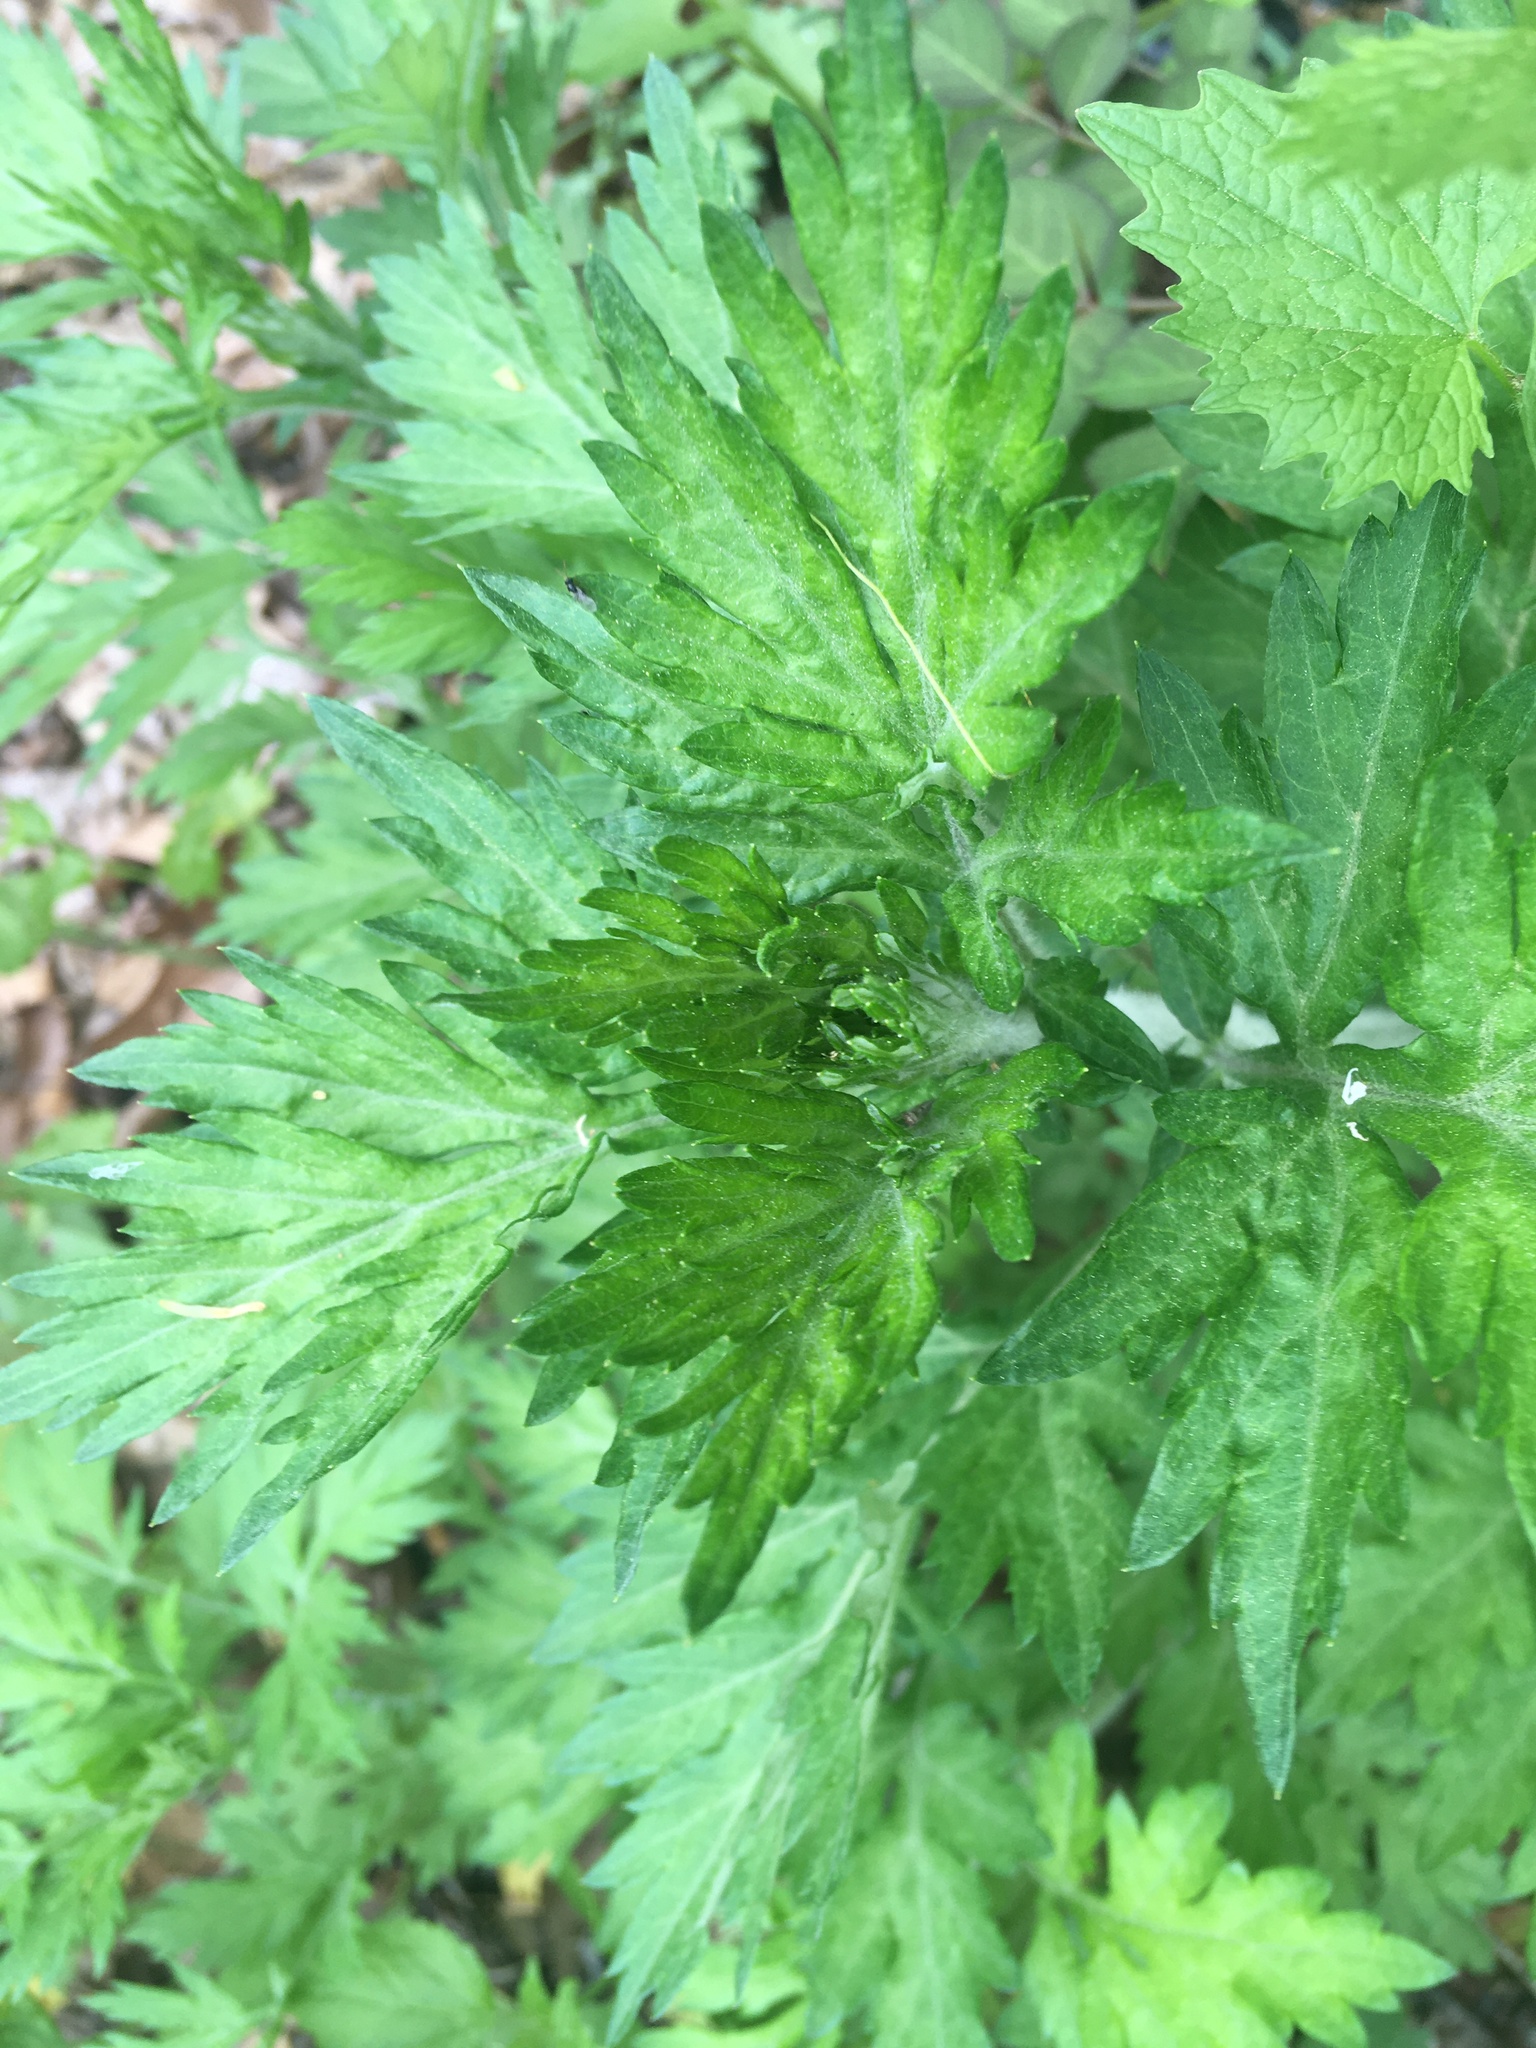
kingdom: Plantae
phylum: Tracheophyta
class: Magnoliopsida
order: Asterales
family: Asteraceae
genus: Artemisia
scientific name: Artemisia vulgaris
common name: Mugwort
